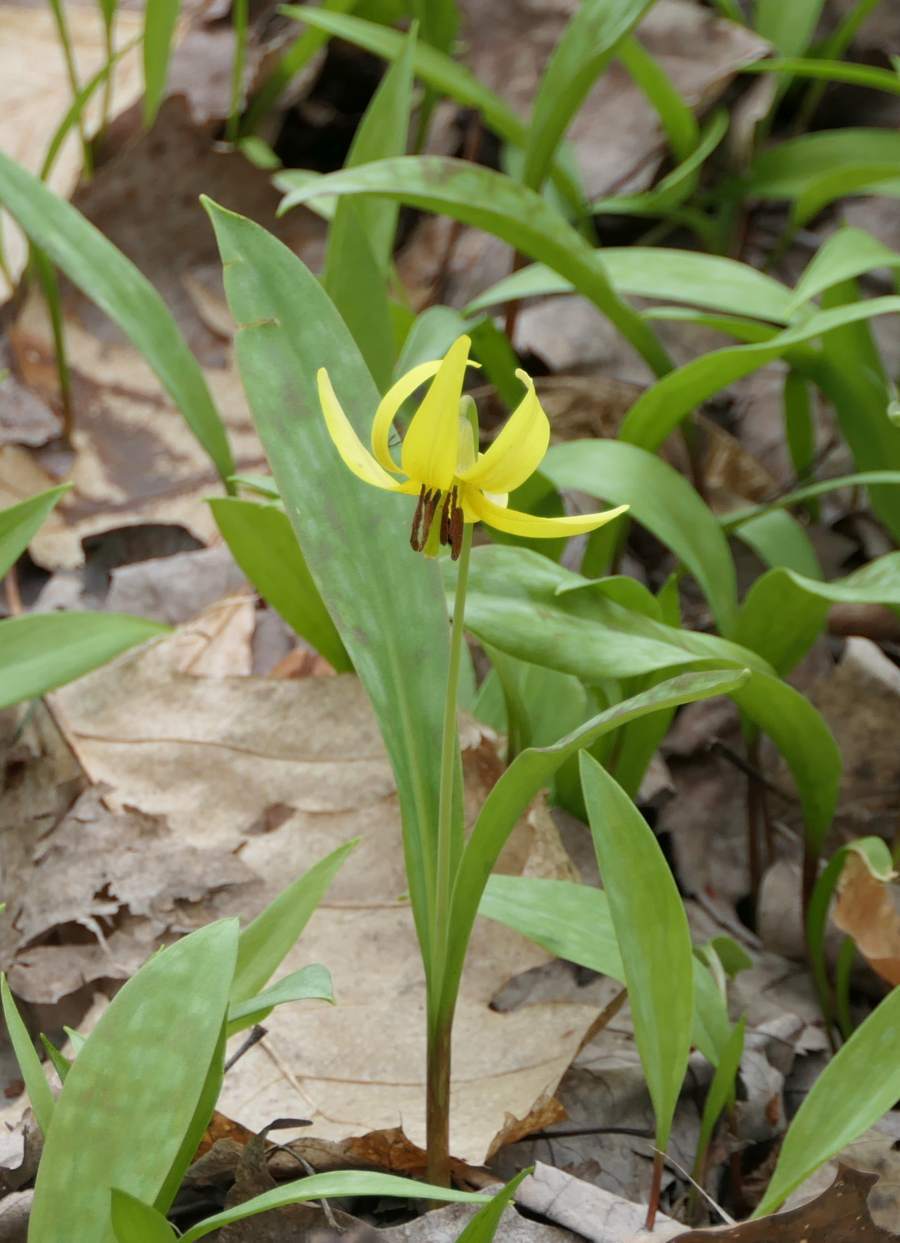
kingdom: Plantae
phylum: Tracheophyta
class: Liliopsida
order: Liliales
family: Liliaceae
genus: Erythronium
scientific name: Erythronium americanum
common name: Yellow adder's-tongue
